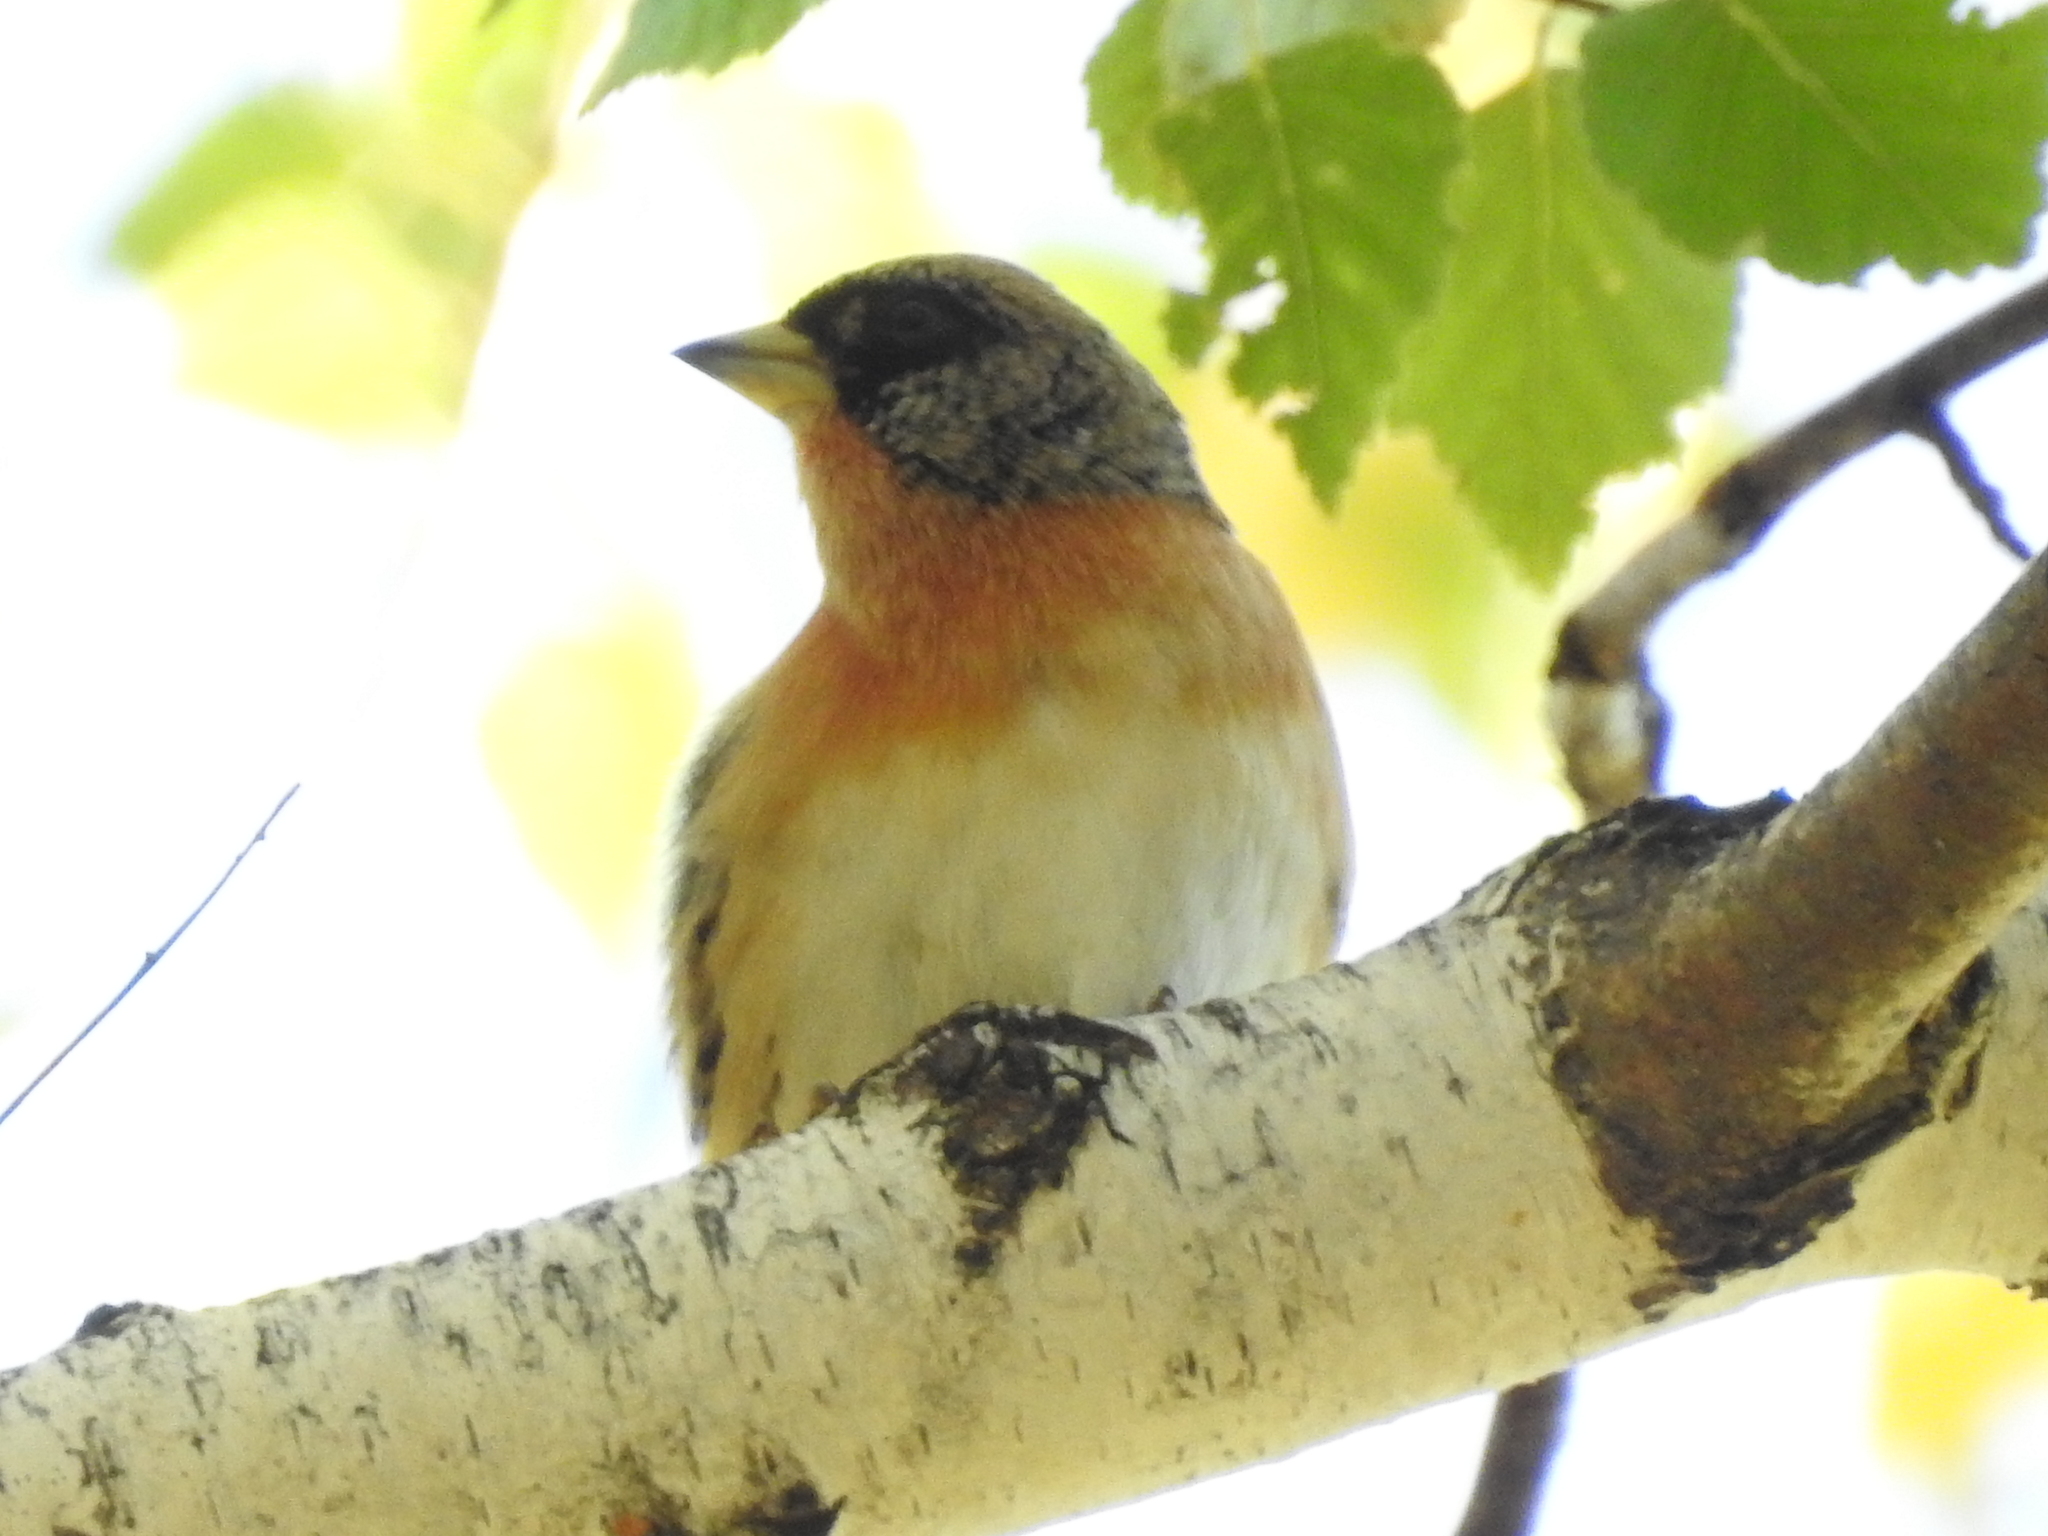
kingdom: Animalia
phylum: Chordata
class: Aves
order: Passeriformes
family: Fringillidae
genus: Fringilla
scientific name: Fringilla montifringilla
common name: Brambling
